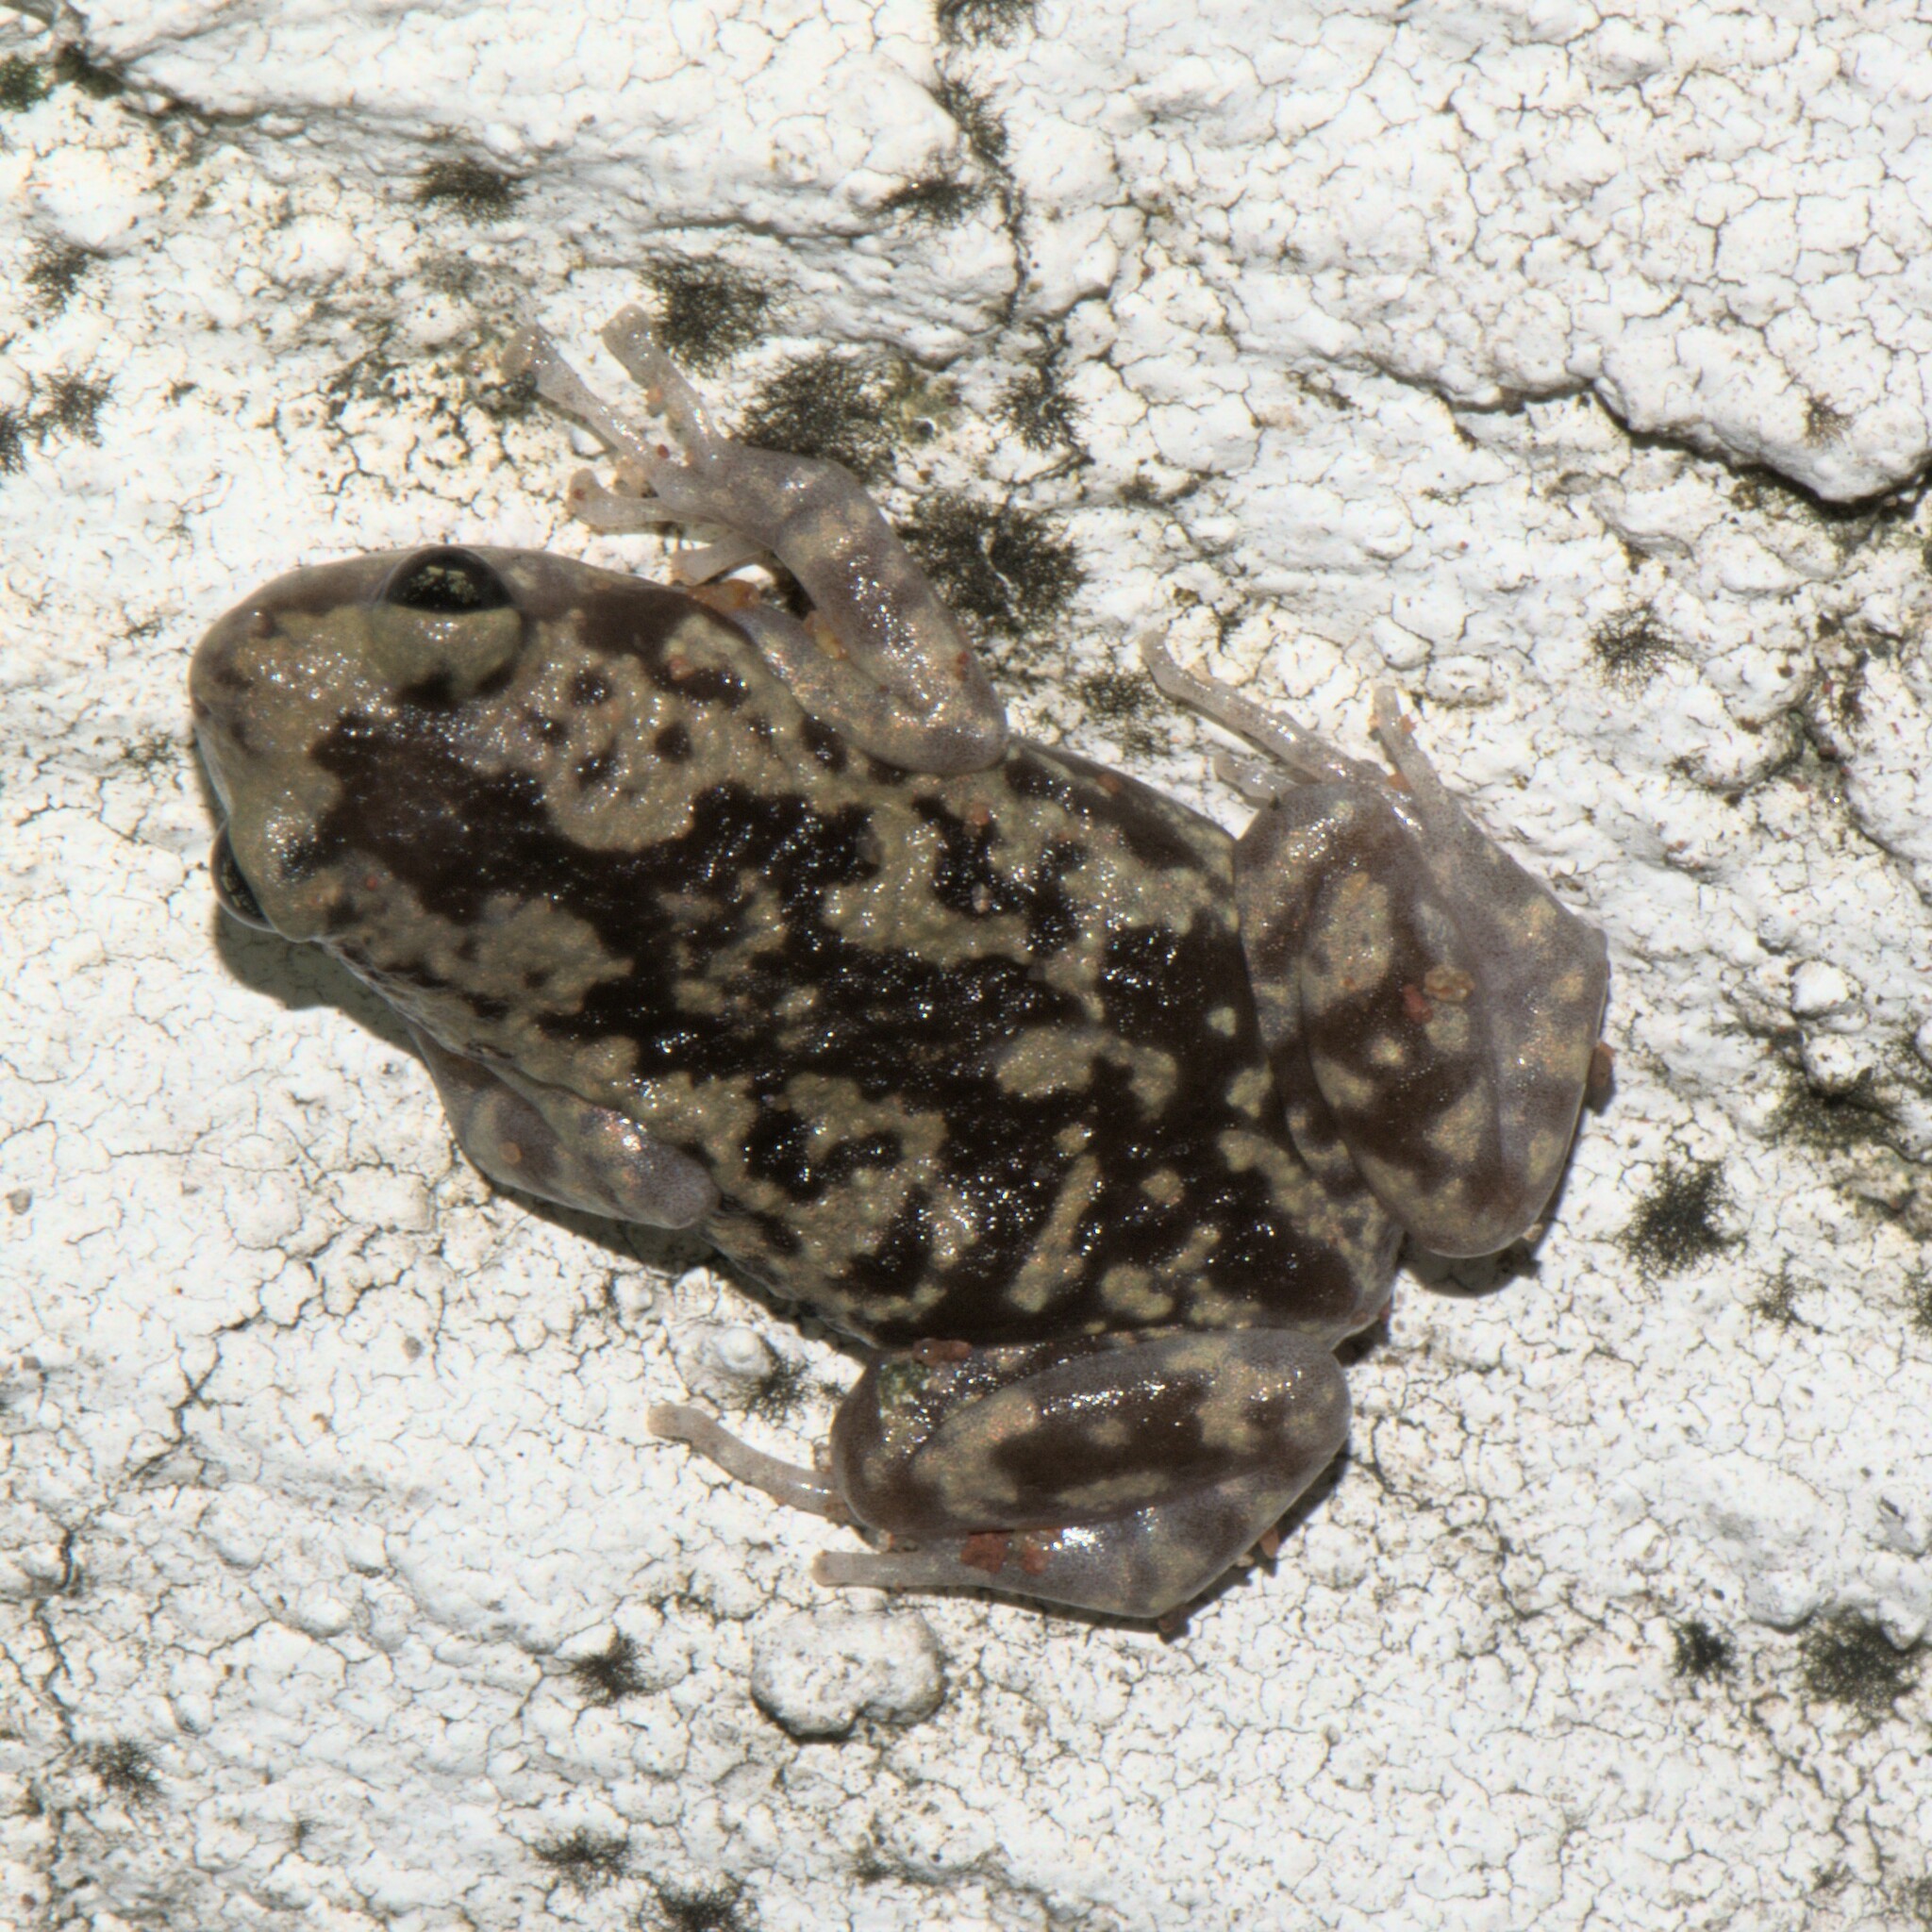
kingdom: Animalia
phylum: Chordata
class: Amphibia
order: Anura
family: Microhylidae
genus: Uperodon
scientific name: Uperodon variegatus
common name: Eluru dot frog
